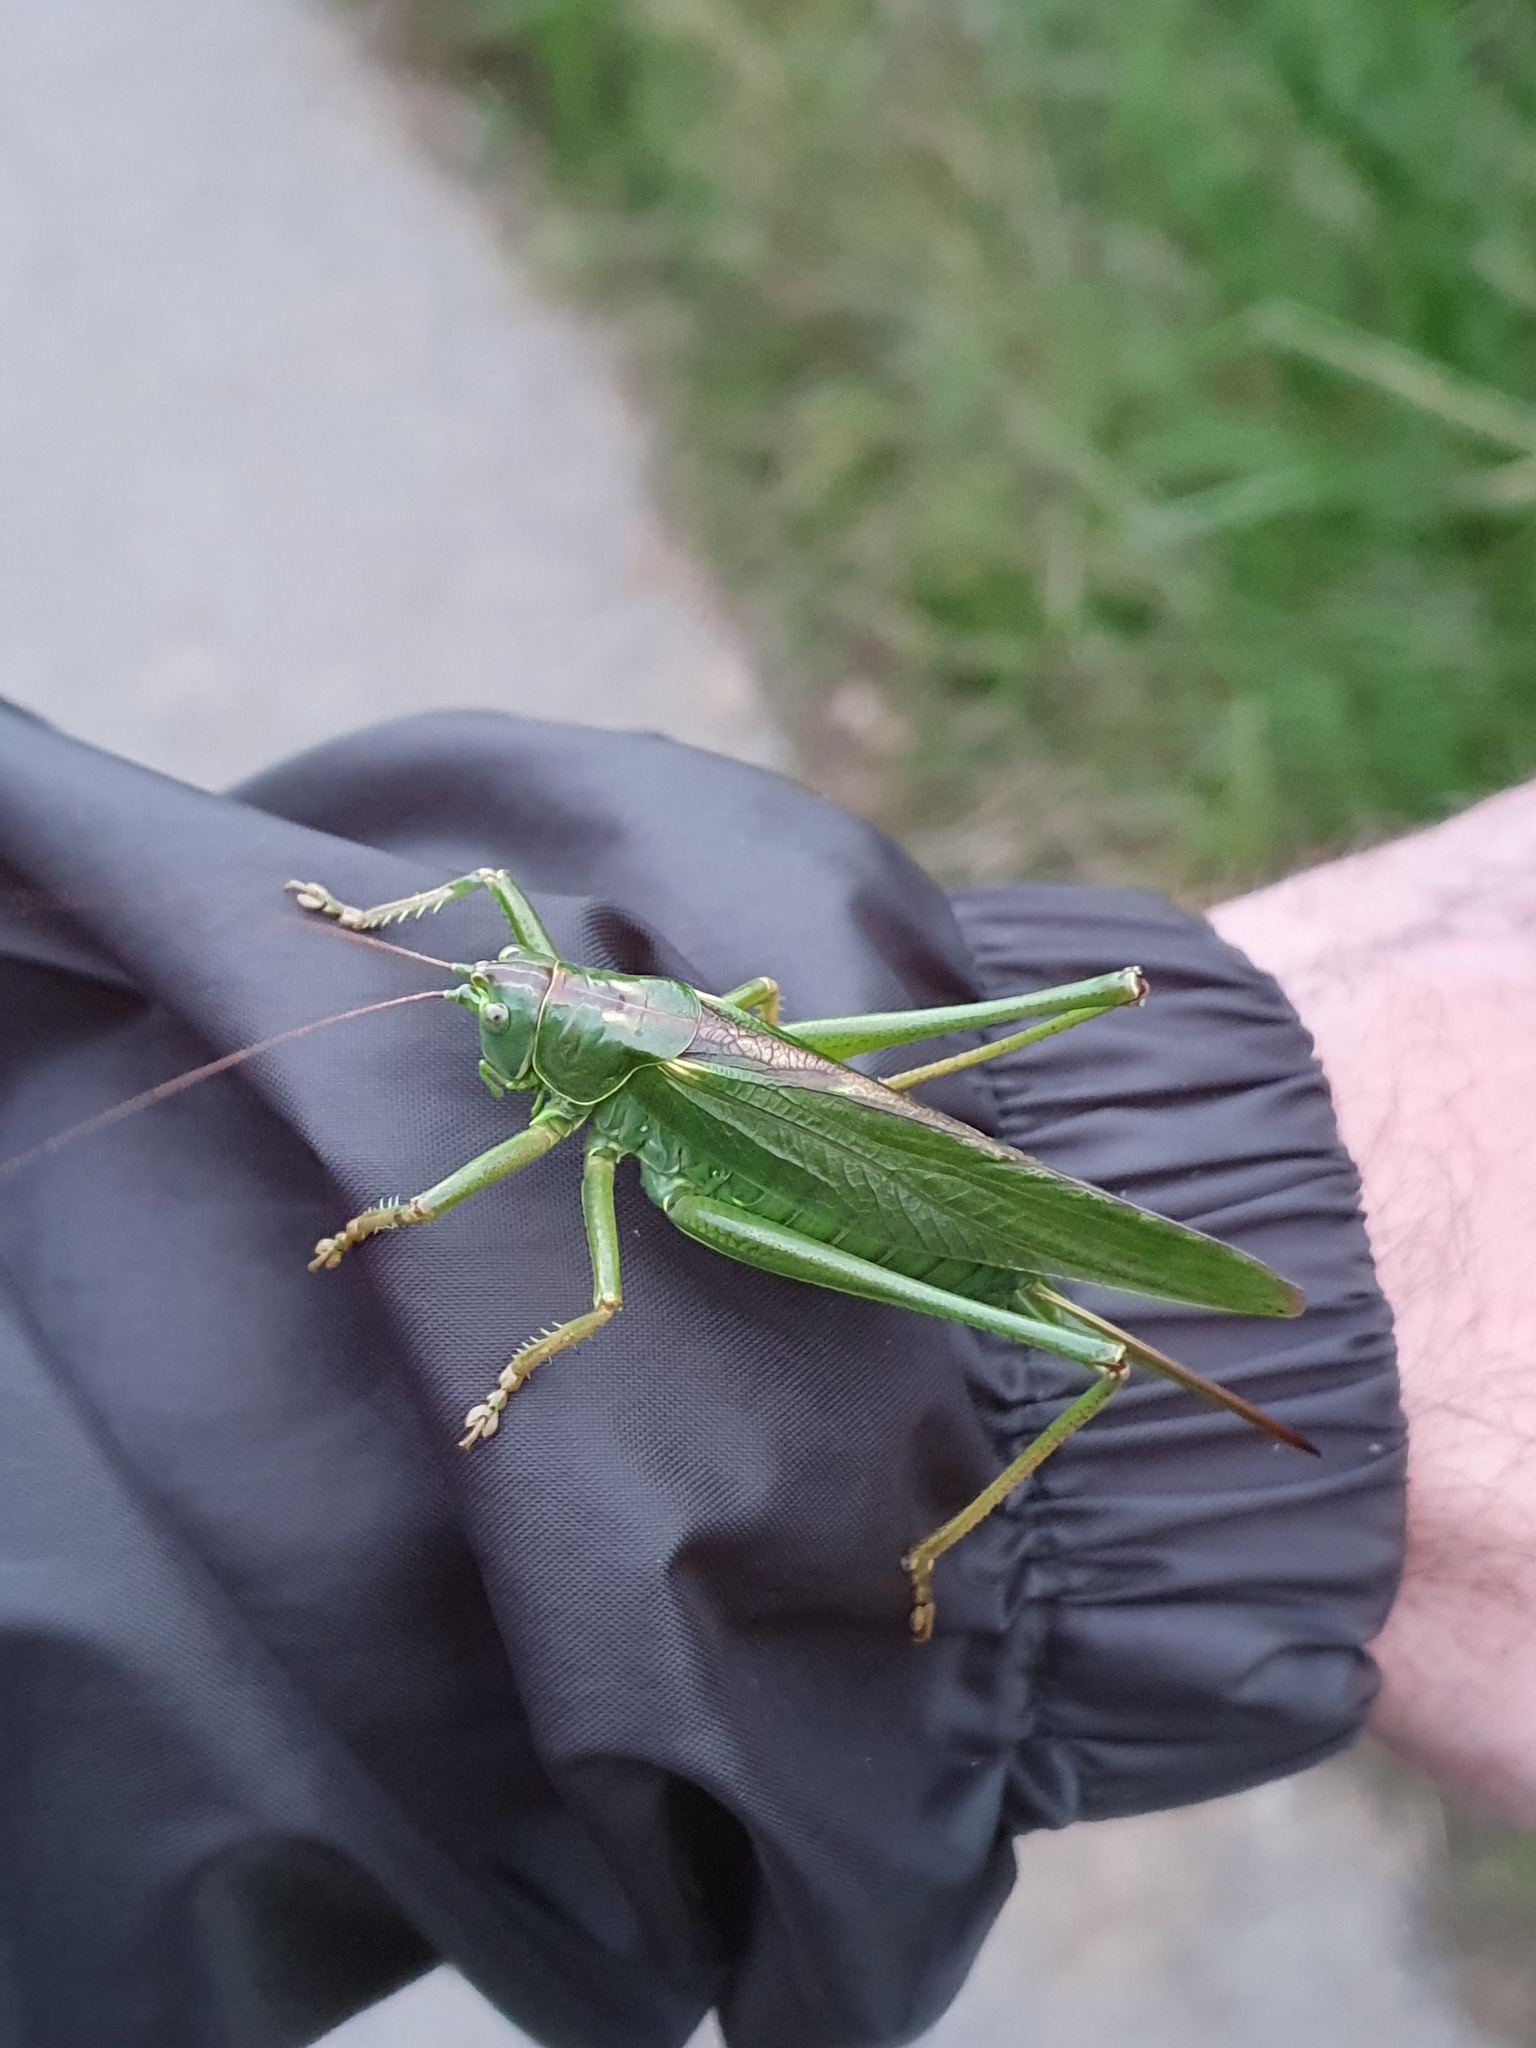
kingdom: Animalia
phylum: Arthropoda
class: Insecta
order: Orthoptera
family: Tettigoniidae
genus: Tettigonia
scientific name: Tettigonia viridissima
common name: Great green bush-cricket
